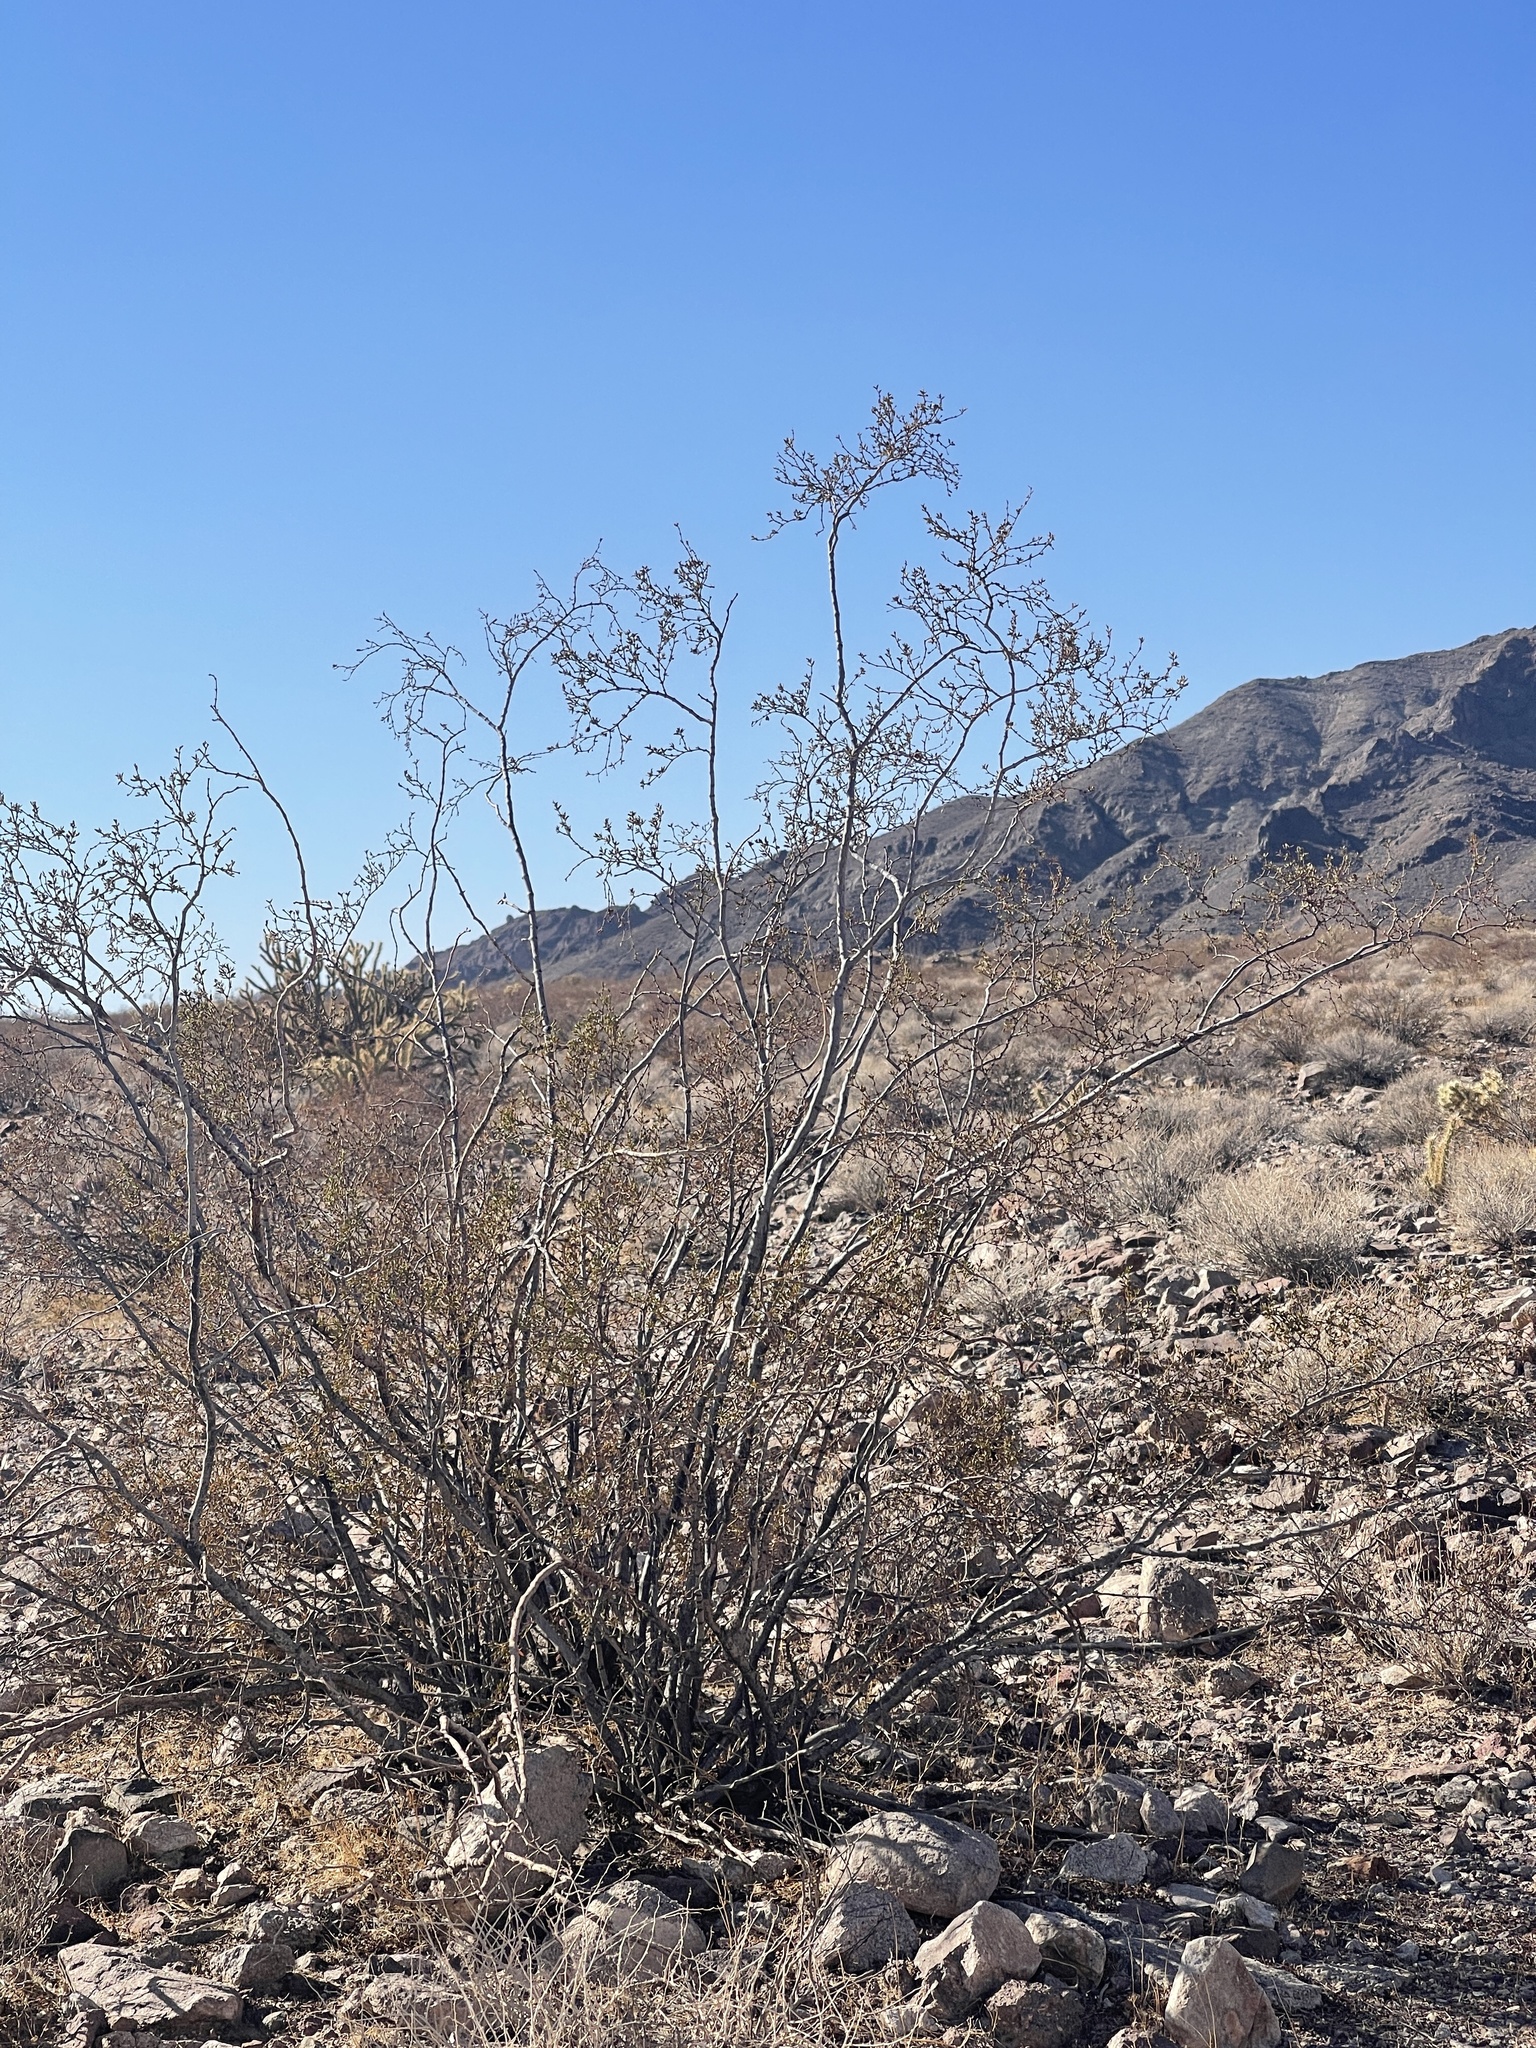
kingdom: Plantae
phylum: Tracheophyta
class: Magnoliopsida
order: Zygophyllales
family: Zygophyllaceae
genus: Larrea
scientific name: Larrea tridentata
